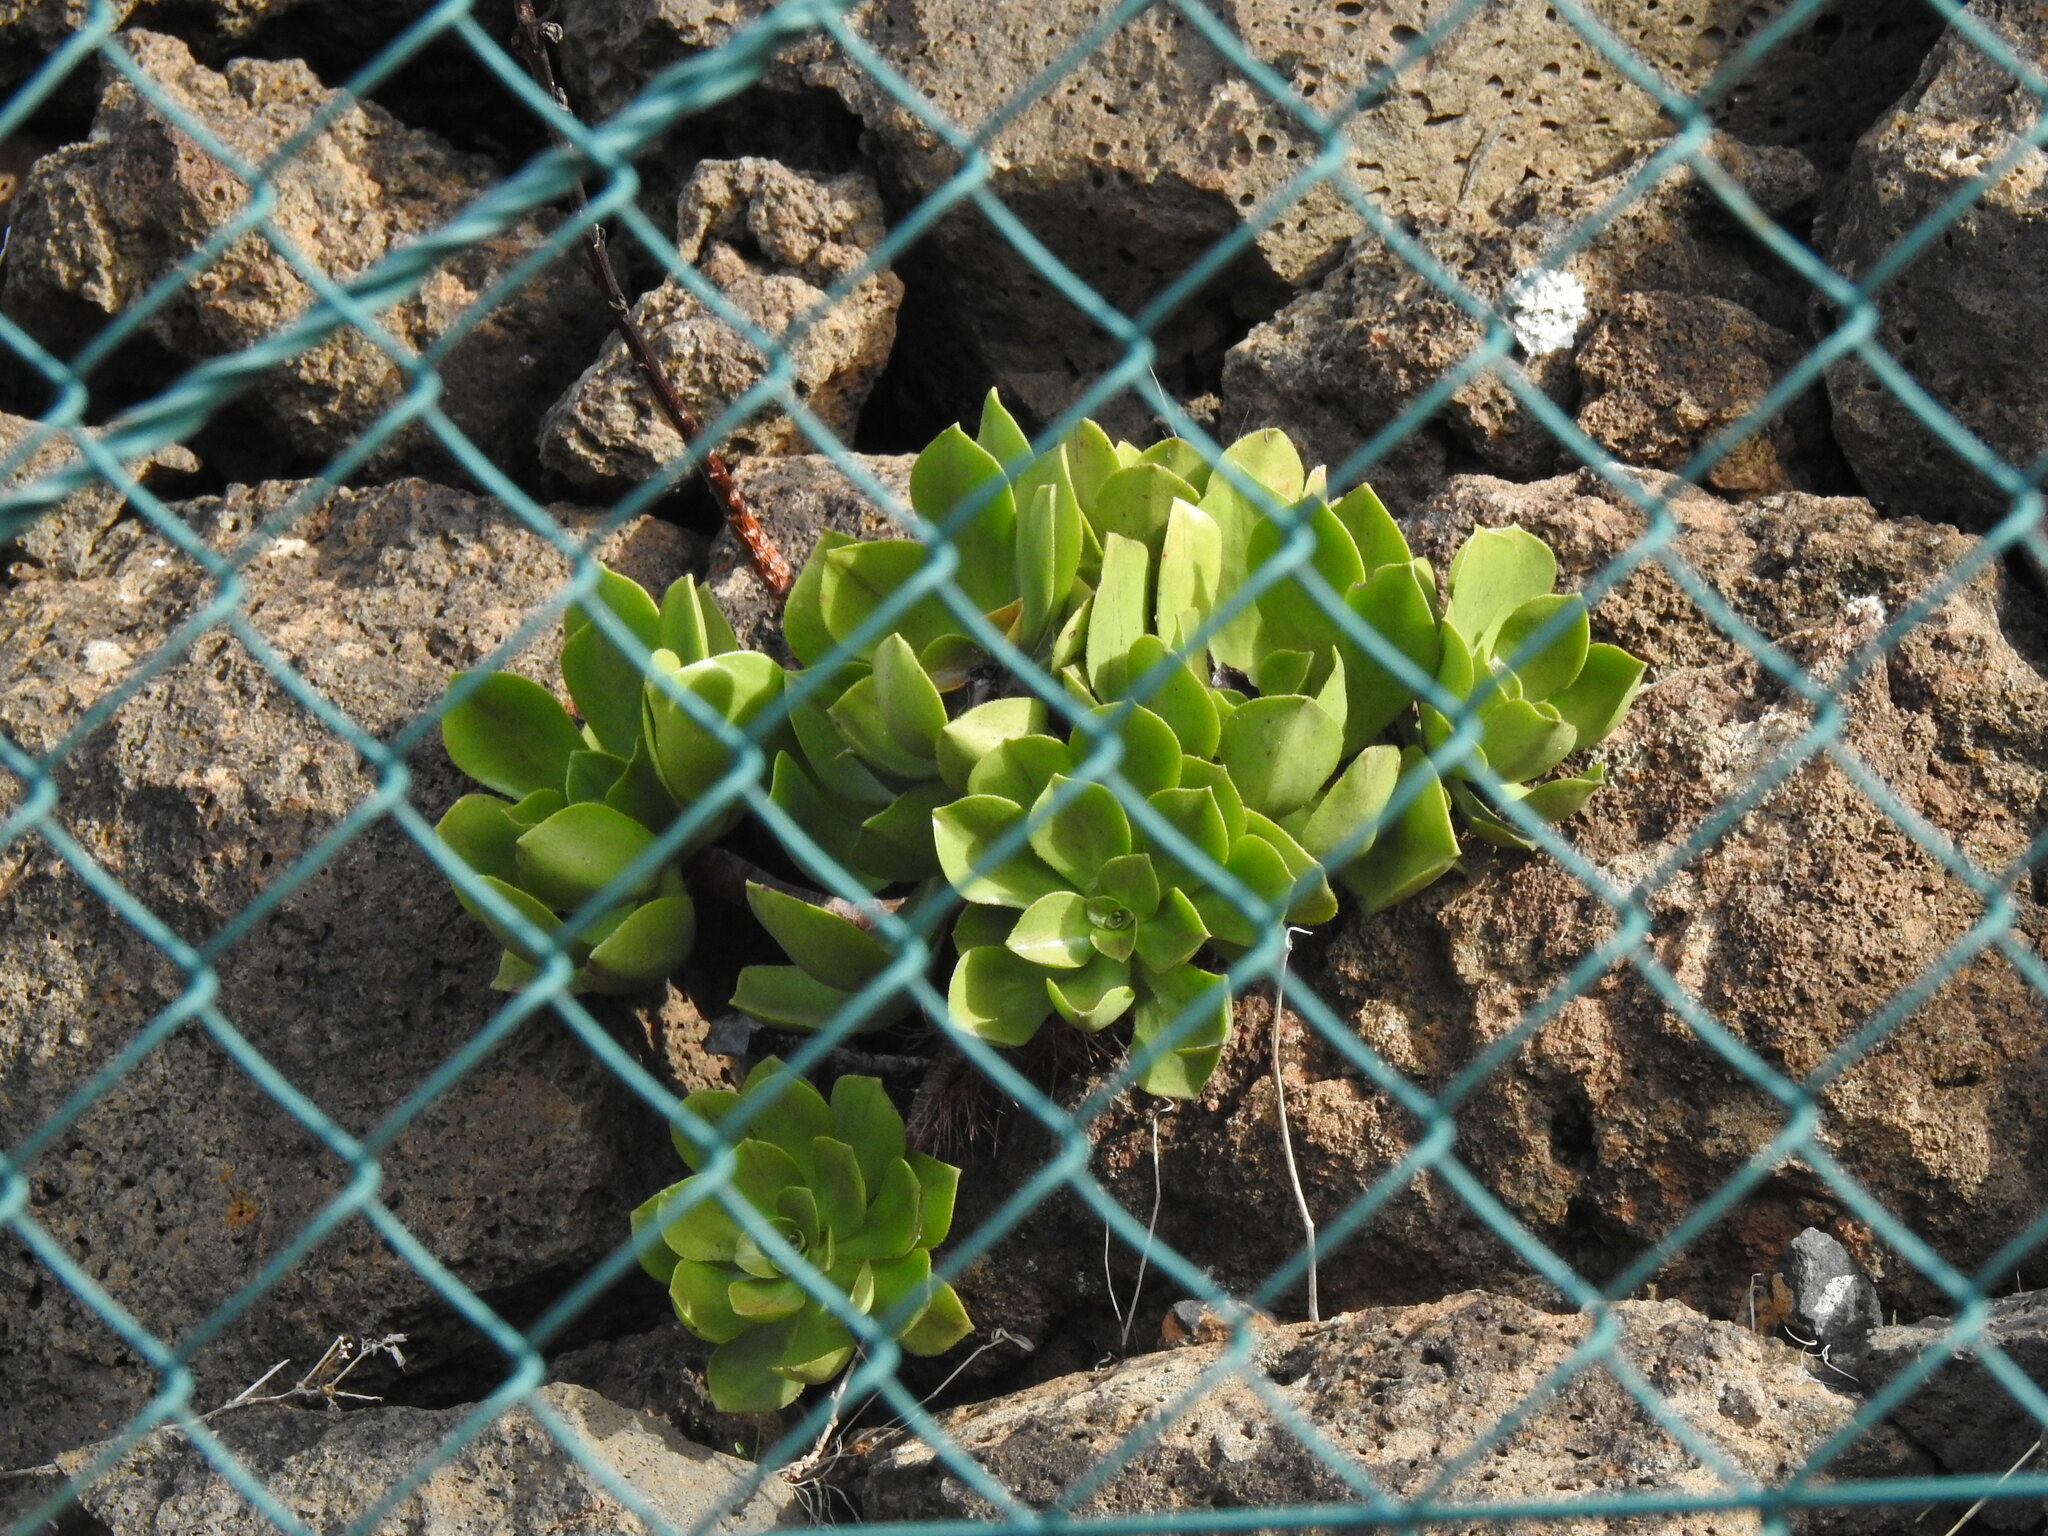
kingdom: Plantae
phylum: Tracheophyta
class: Magnoliopsida
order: Saxifragales
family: Crassulaceae
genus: Aeonium
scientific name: Aeonium glutinosum
